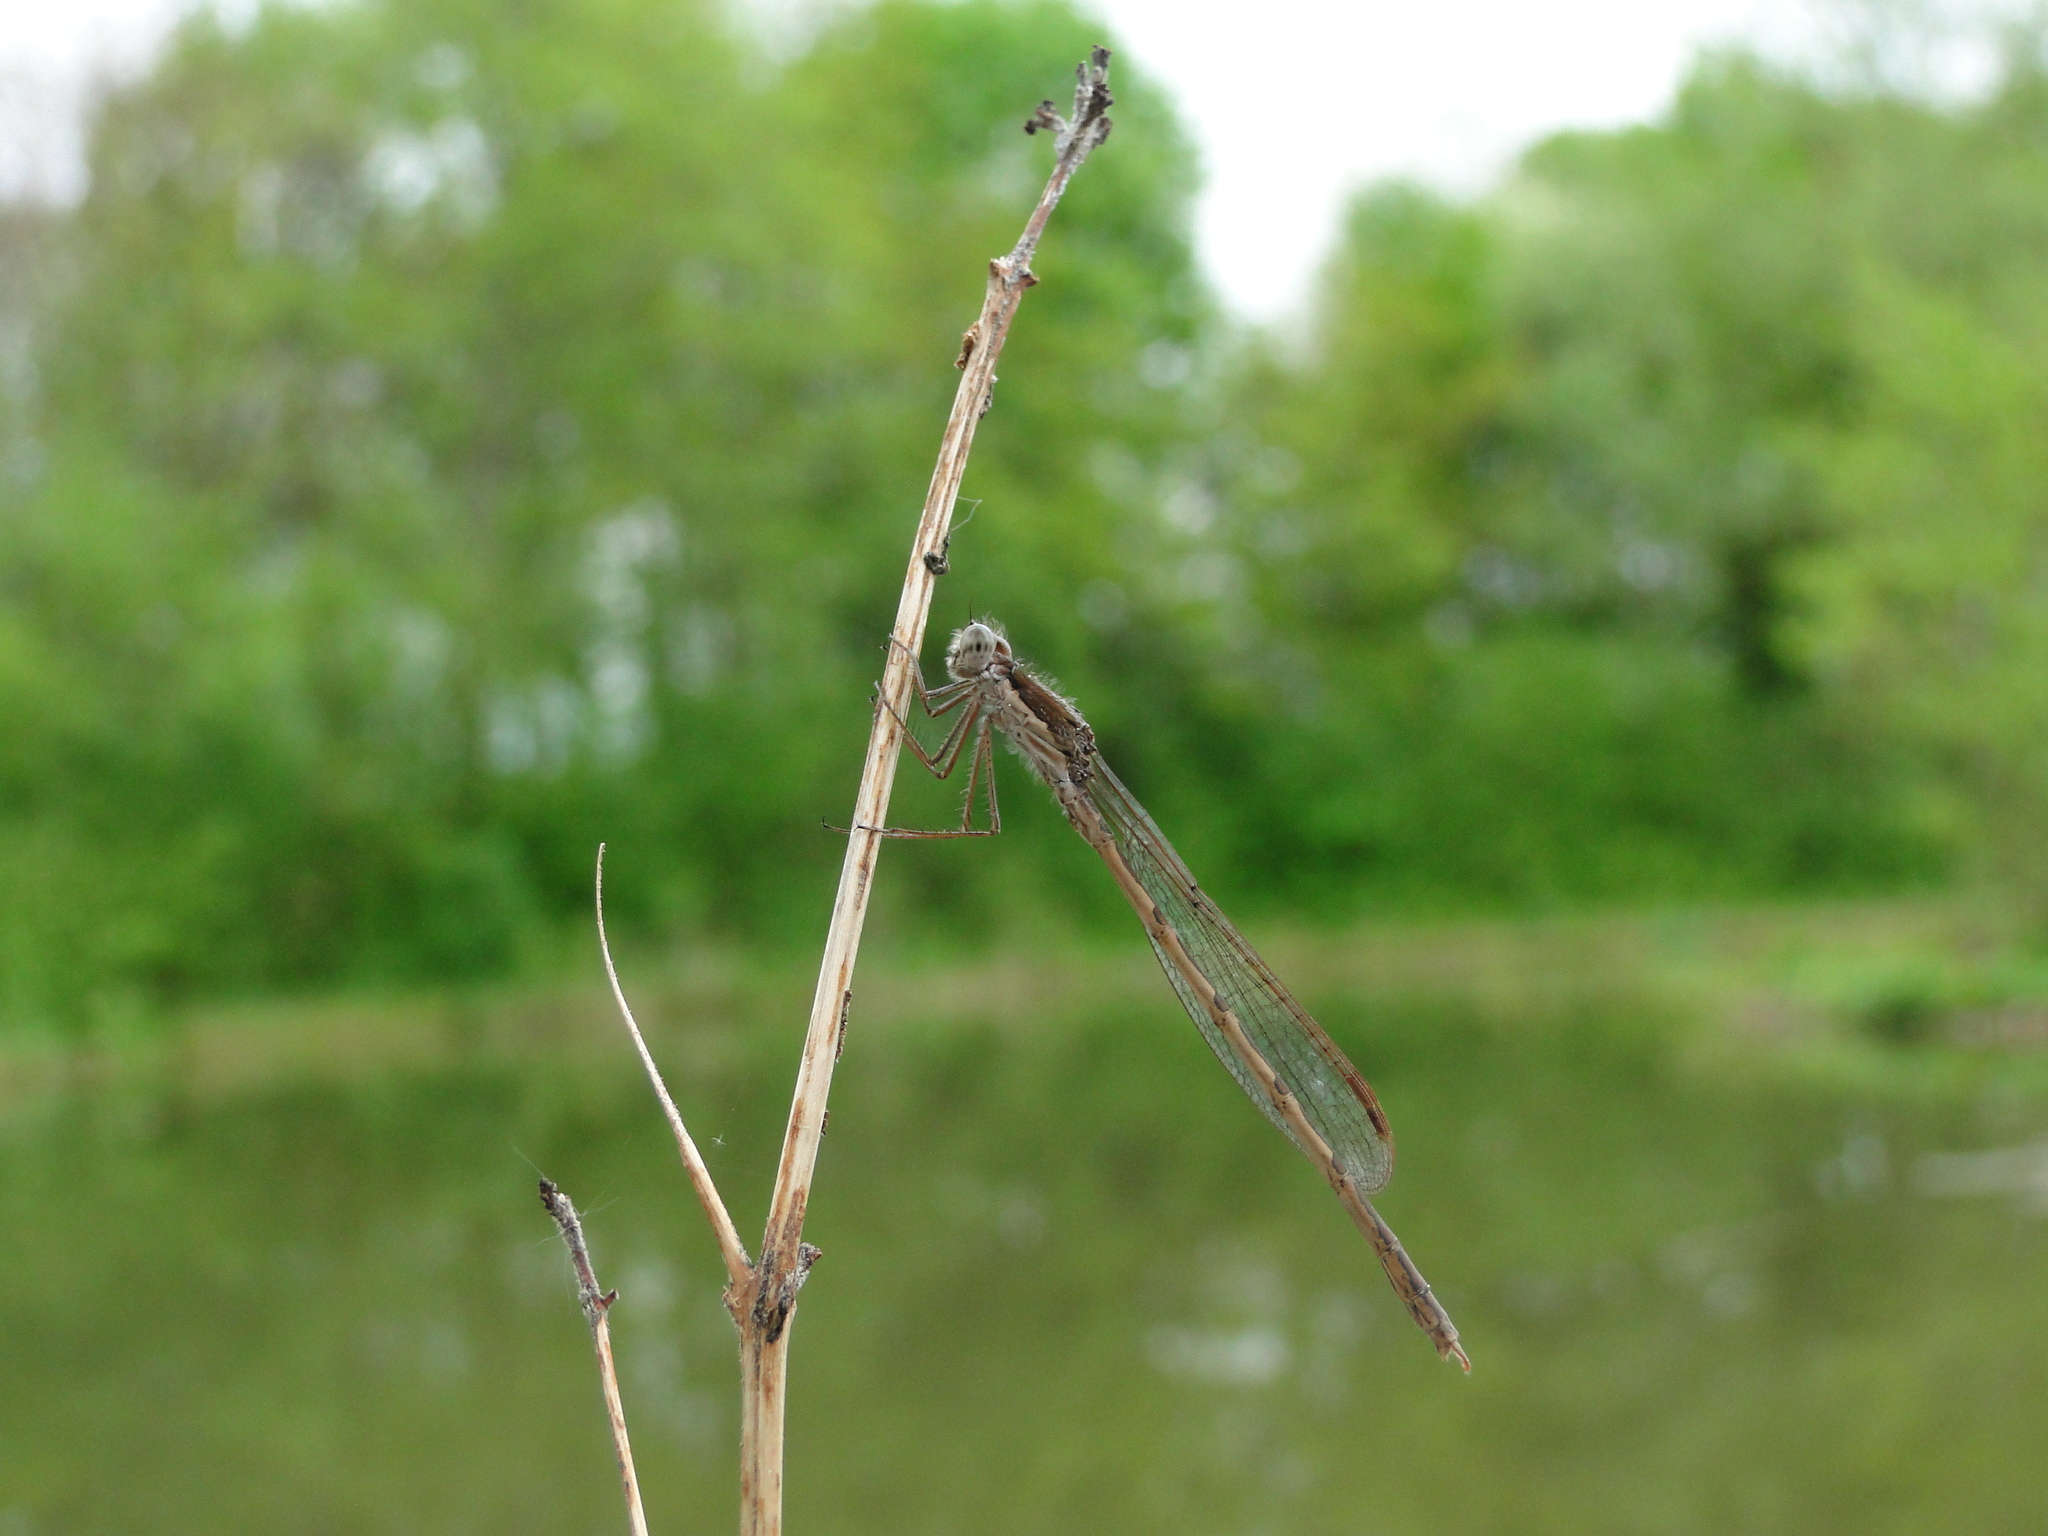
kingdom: Animalia
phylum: Arthropoda
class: Insecta
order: Odonata
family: Lestidae
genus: Sympecma
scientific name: Sympecma fusca
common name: Common winter damsel
